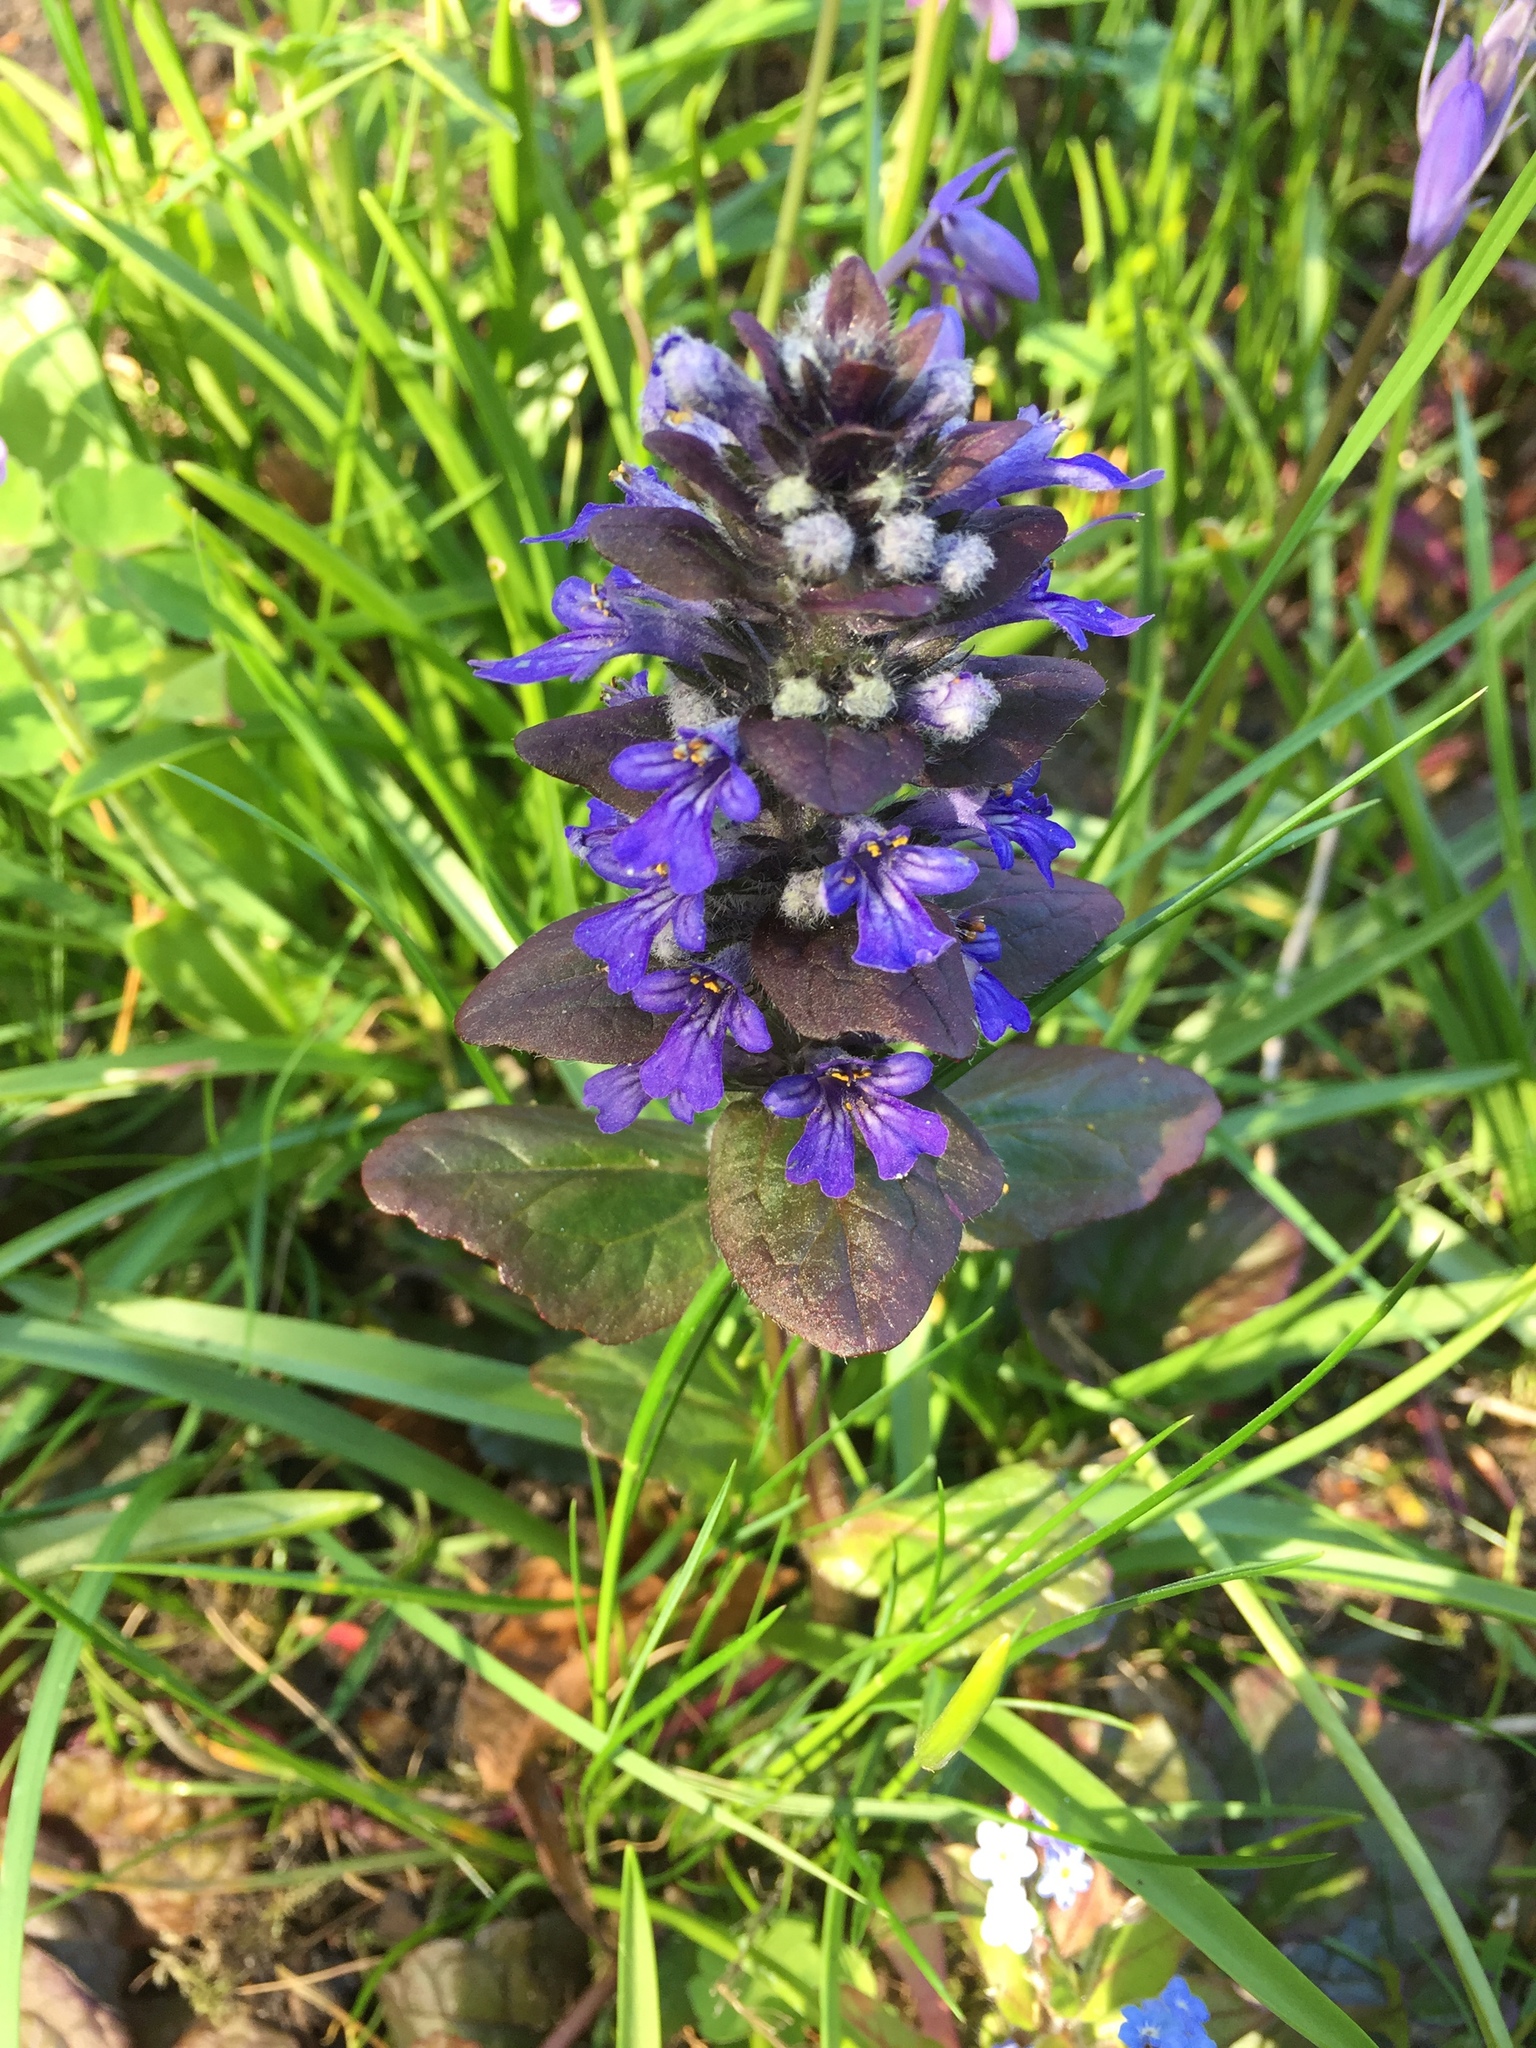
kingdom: Plantae
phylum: Tracheophyta
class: Magnoliopsida
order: Lamiales
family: Lamiaceae
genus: Ajuga
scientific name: Ajuga reptans
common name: Bugle
